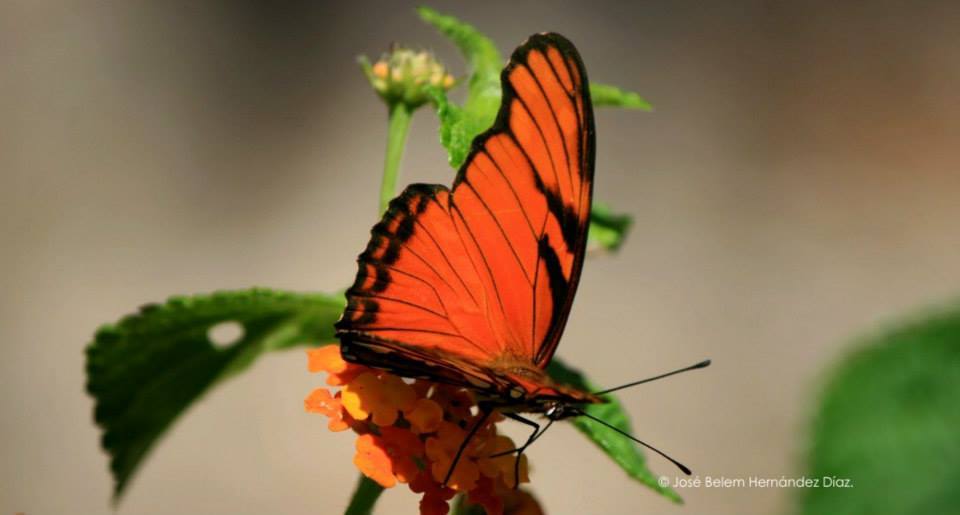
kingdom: Animalia
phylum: Arthropoda
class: Insecta
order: Lepidoptera
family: Nymphalidae
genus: Dione
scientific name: Dione juno
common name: Juno silverspot
